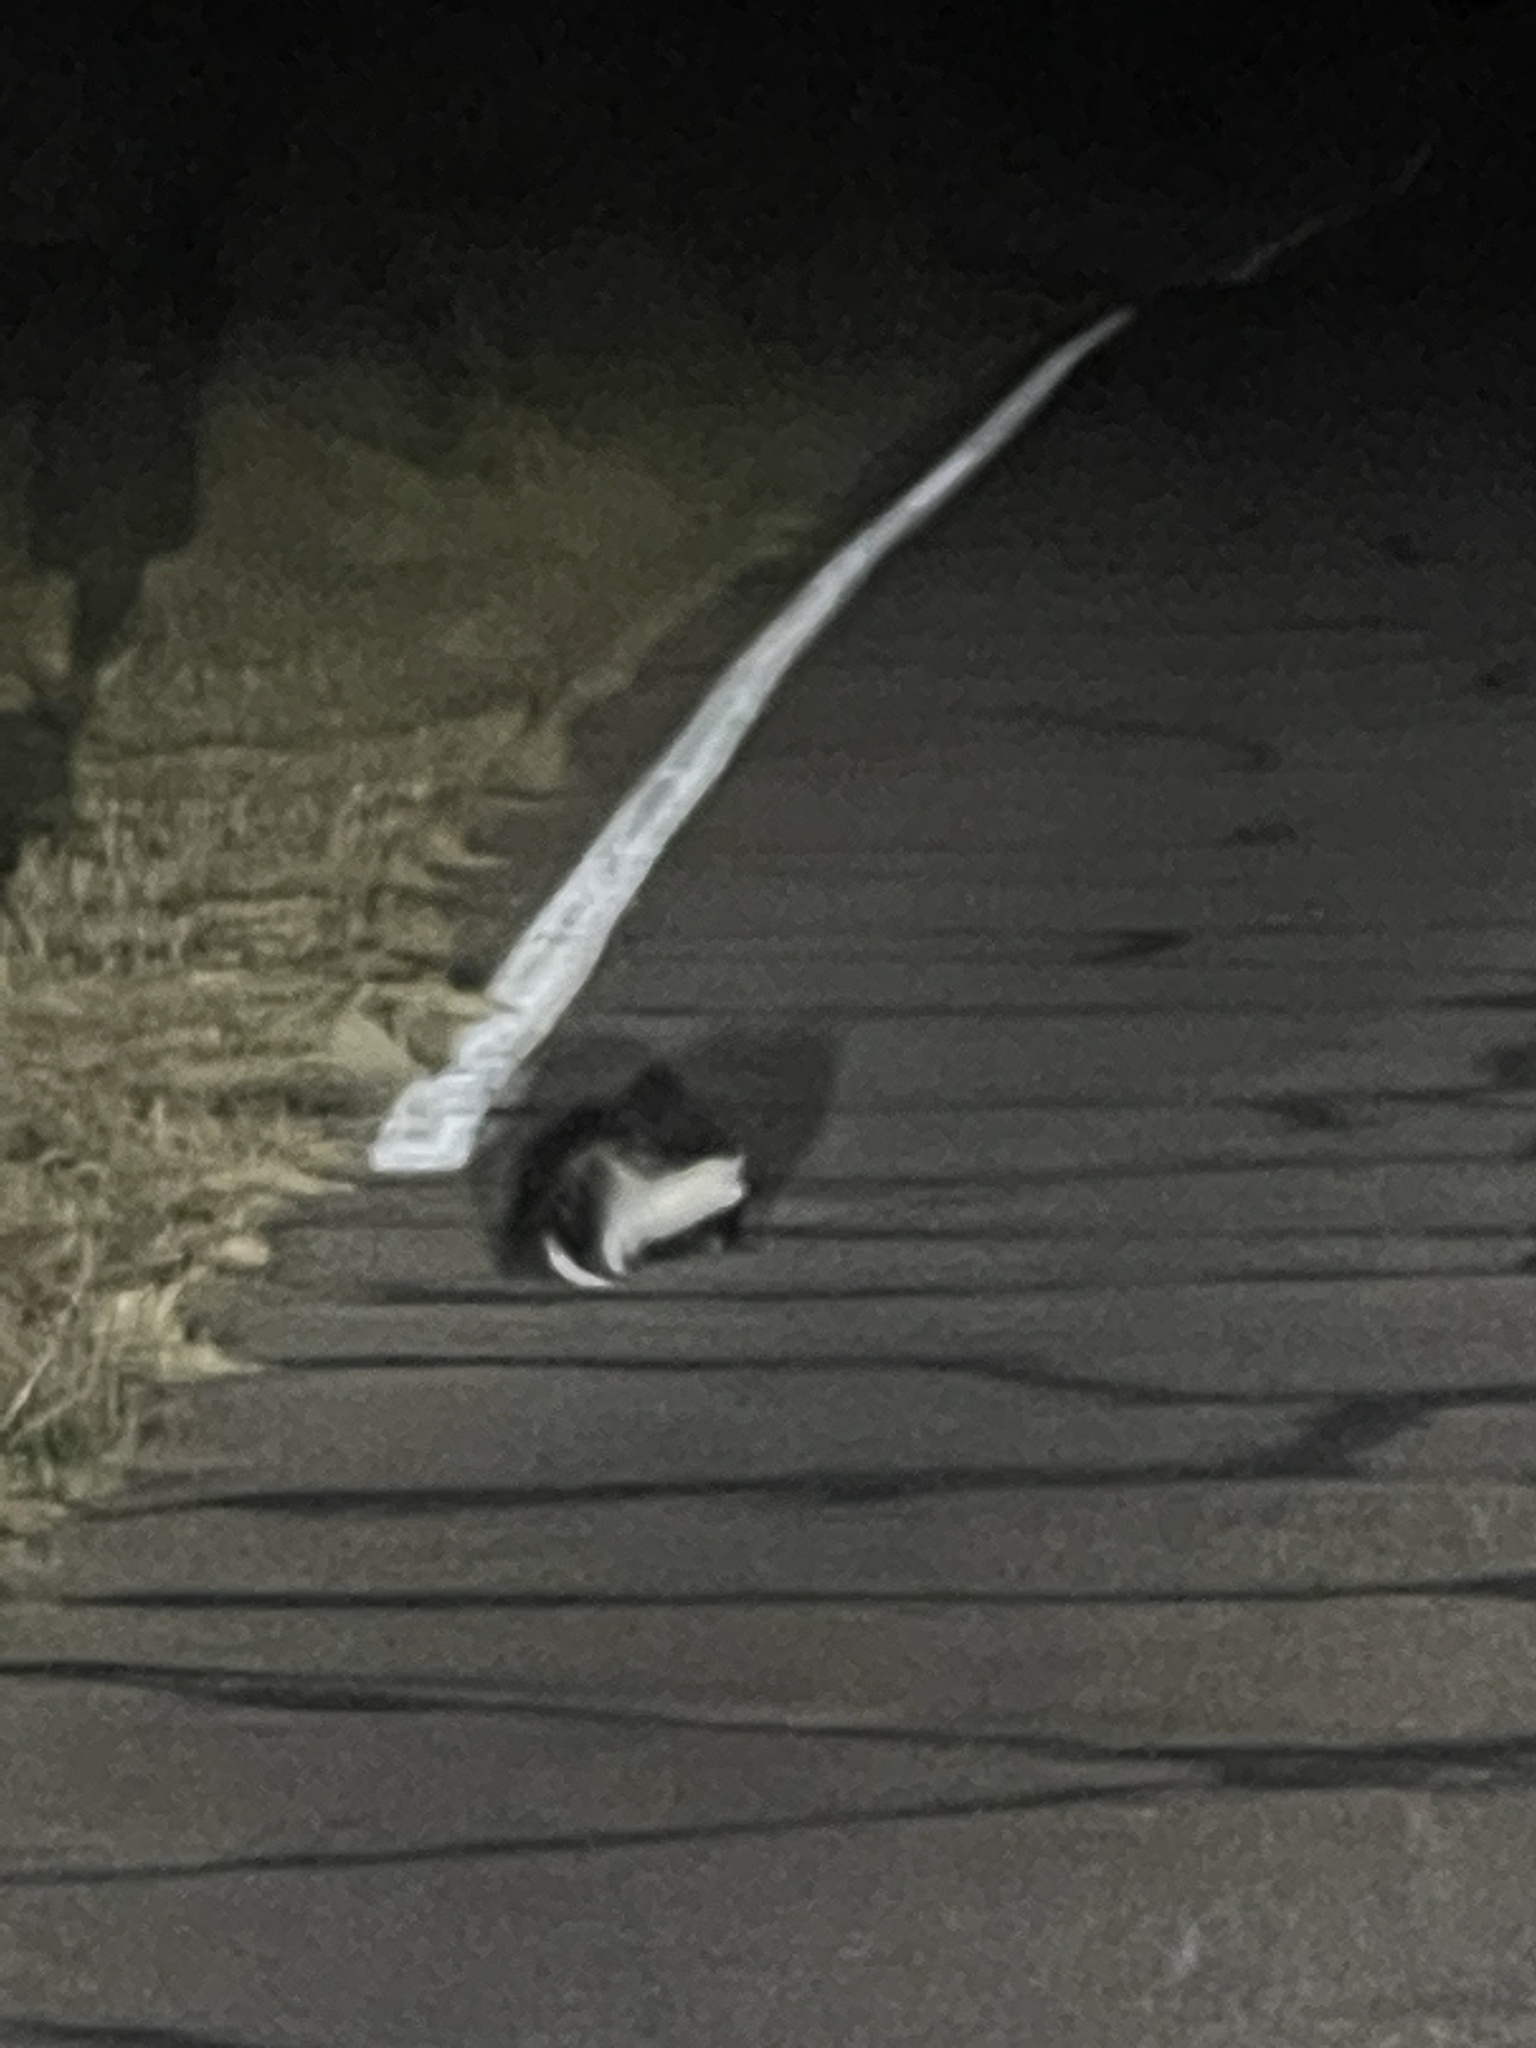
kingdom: Animalia
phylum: Chordata
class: Mammalia
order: Carnivora
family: Mephitidae
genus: Mephitis
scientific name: Mephitis macroura
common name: Hooded skunk
